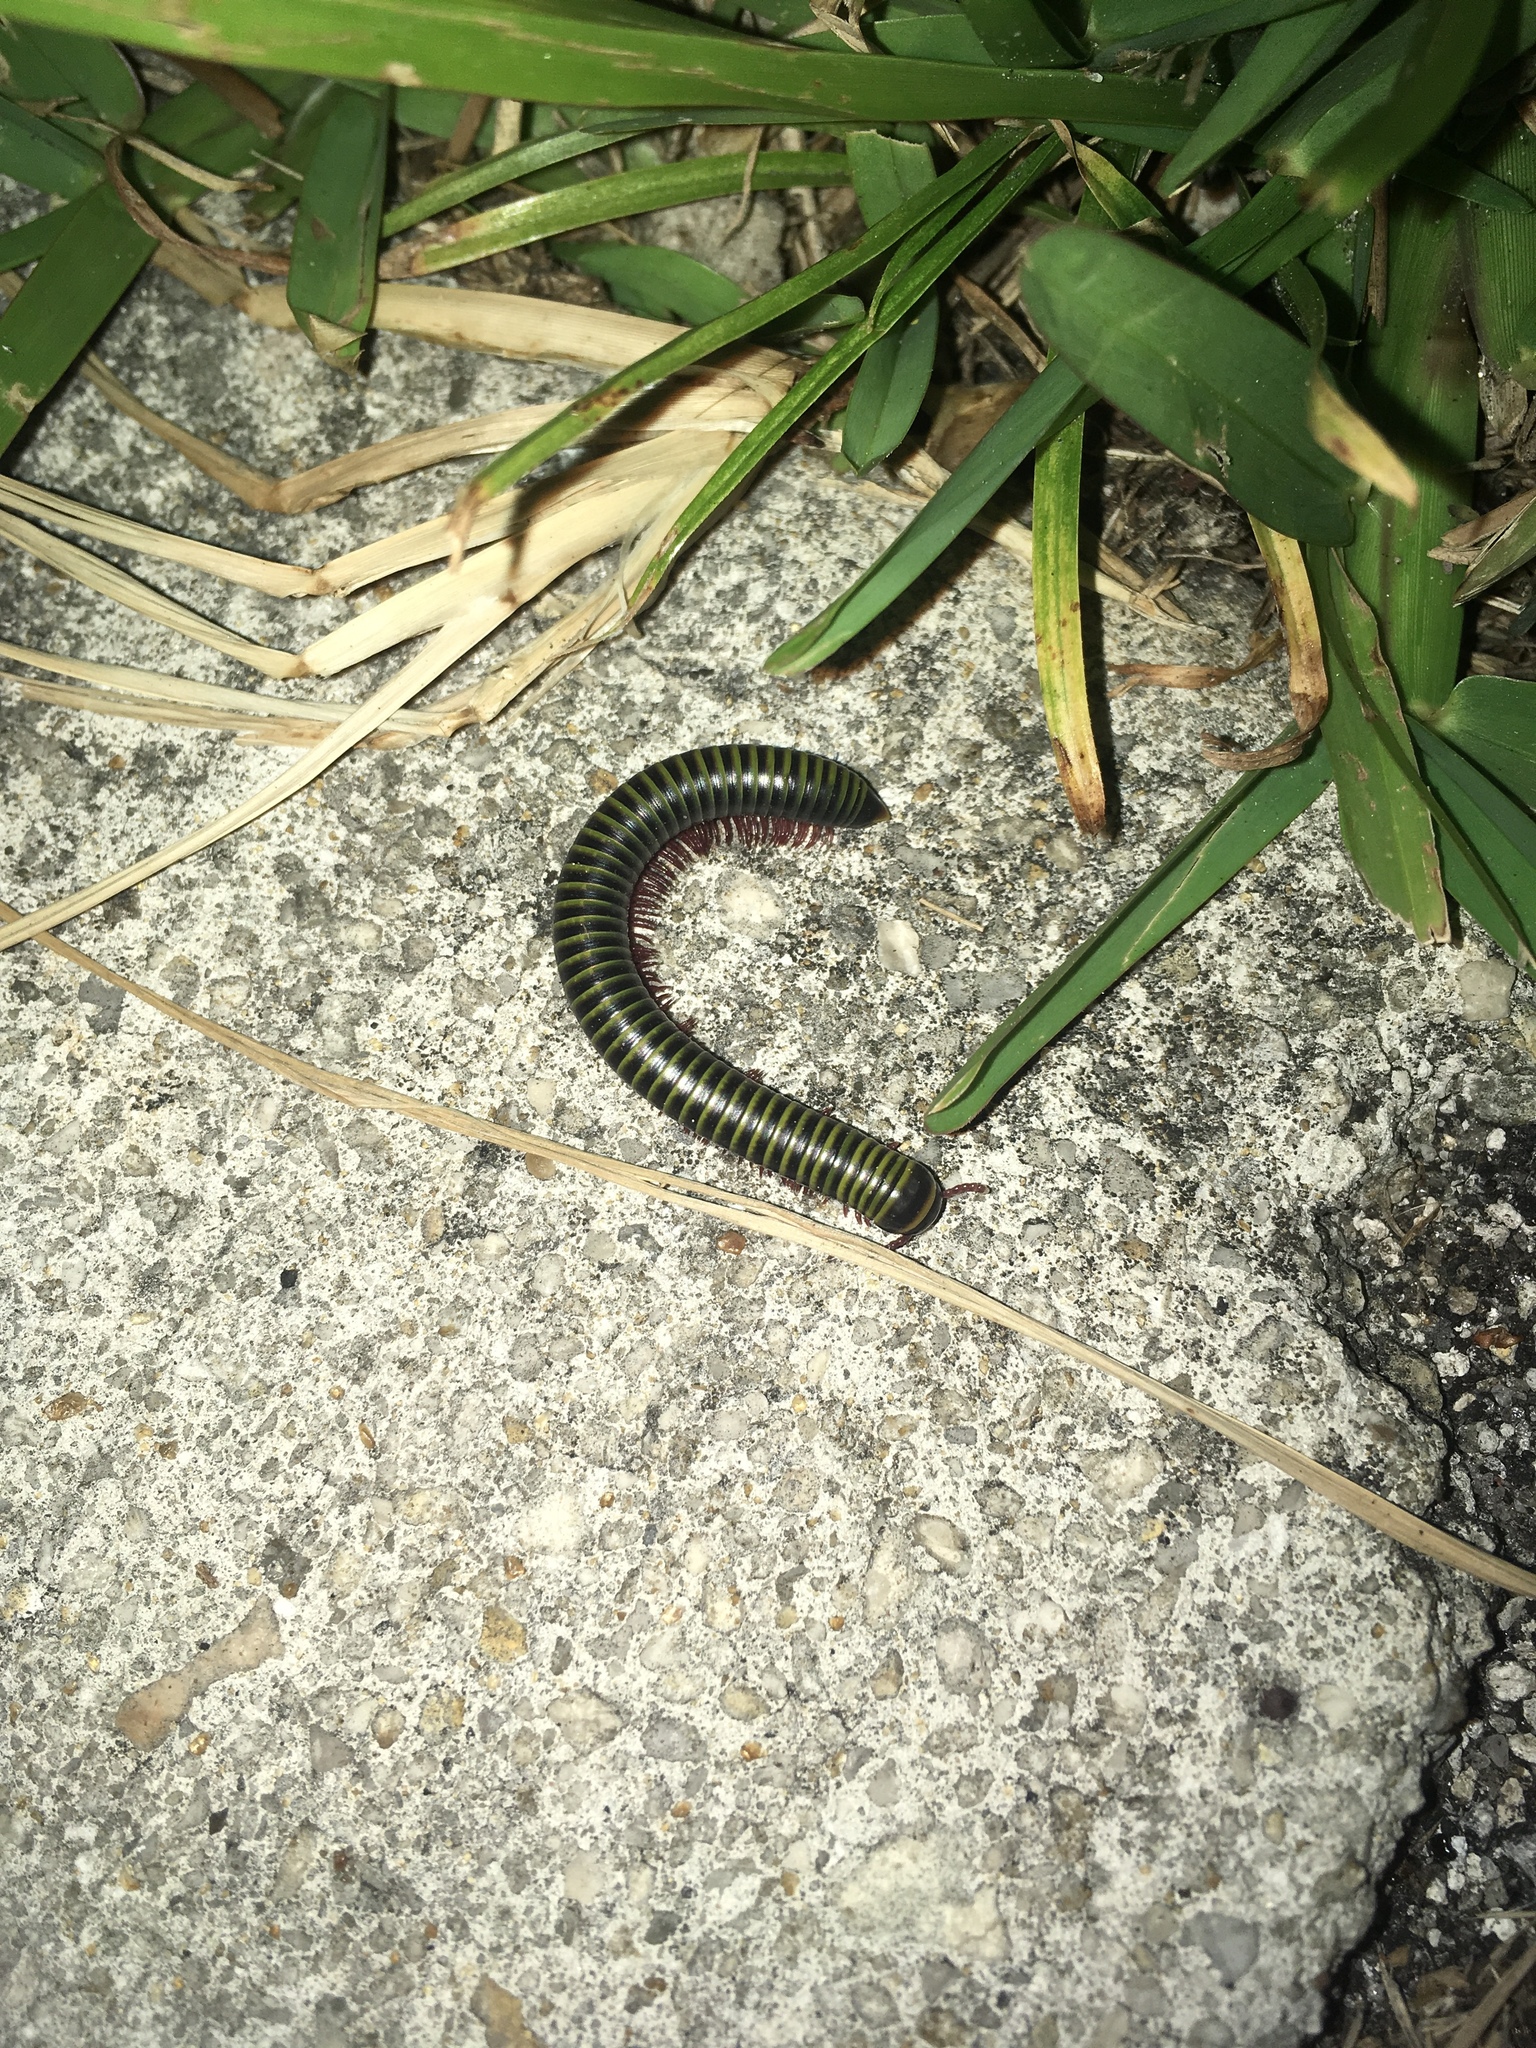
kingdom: Animalia
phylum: Arthropoda
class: Diplopoda
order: Spirobolida
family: Rhinocricidae
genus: Anadenobolus
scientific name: Anadenobolus monilicornis
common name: Caribbean millipede
